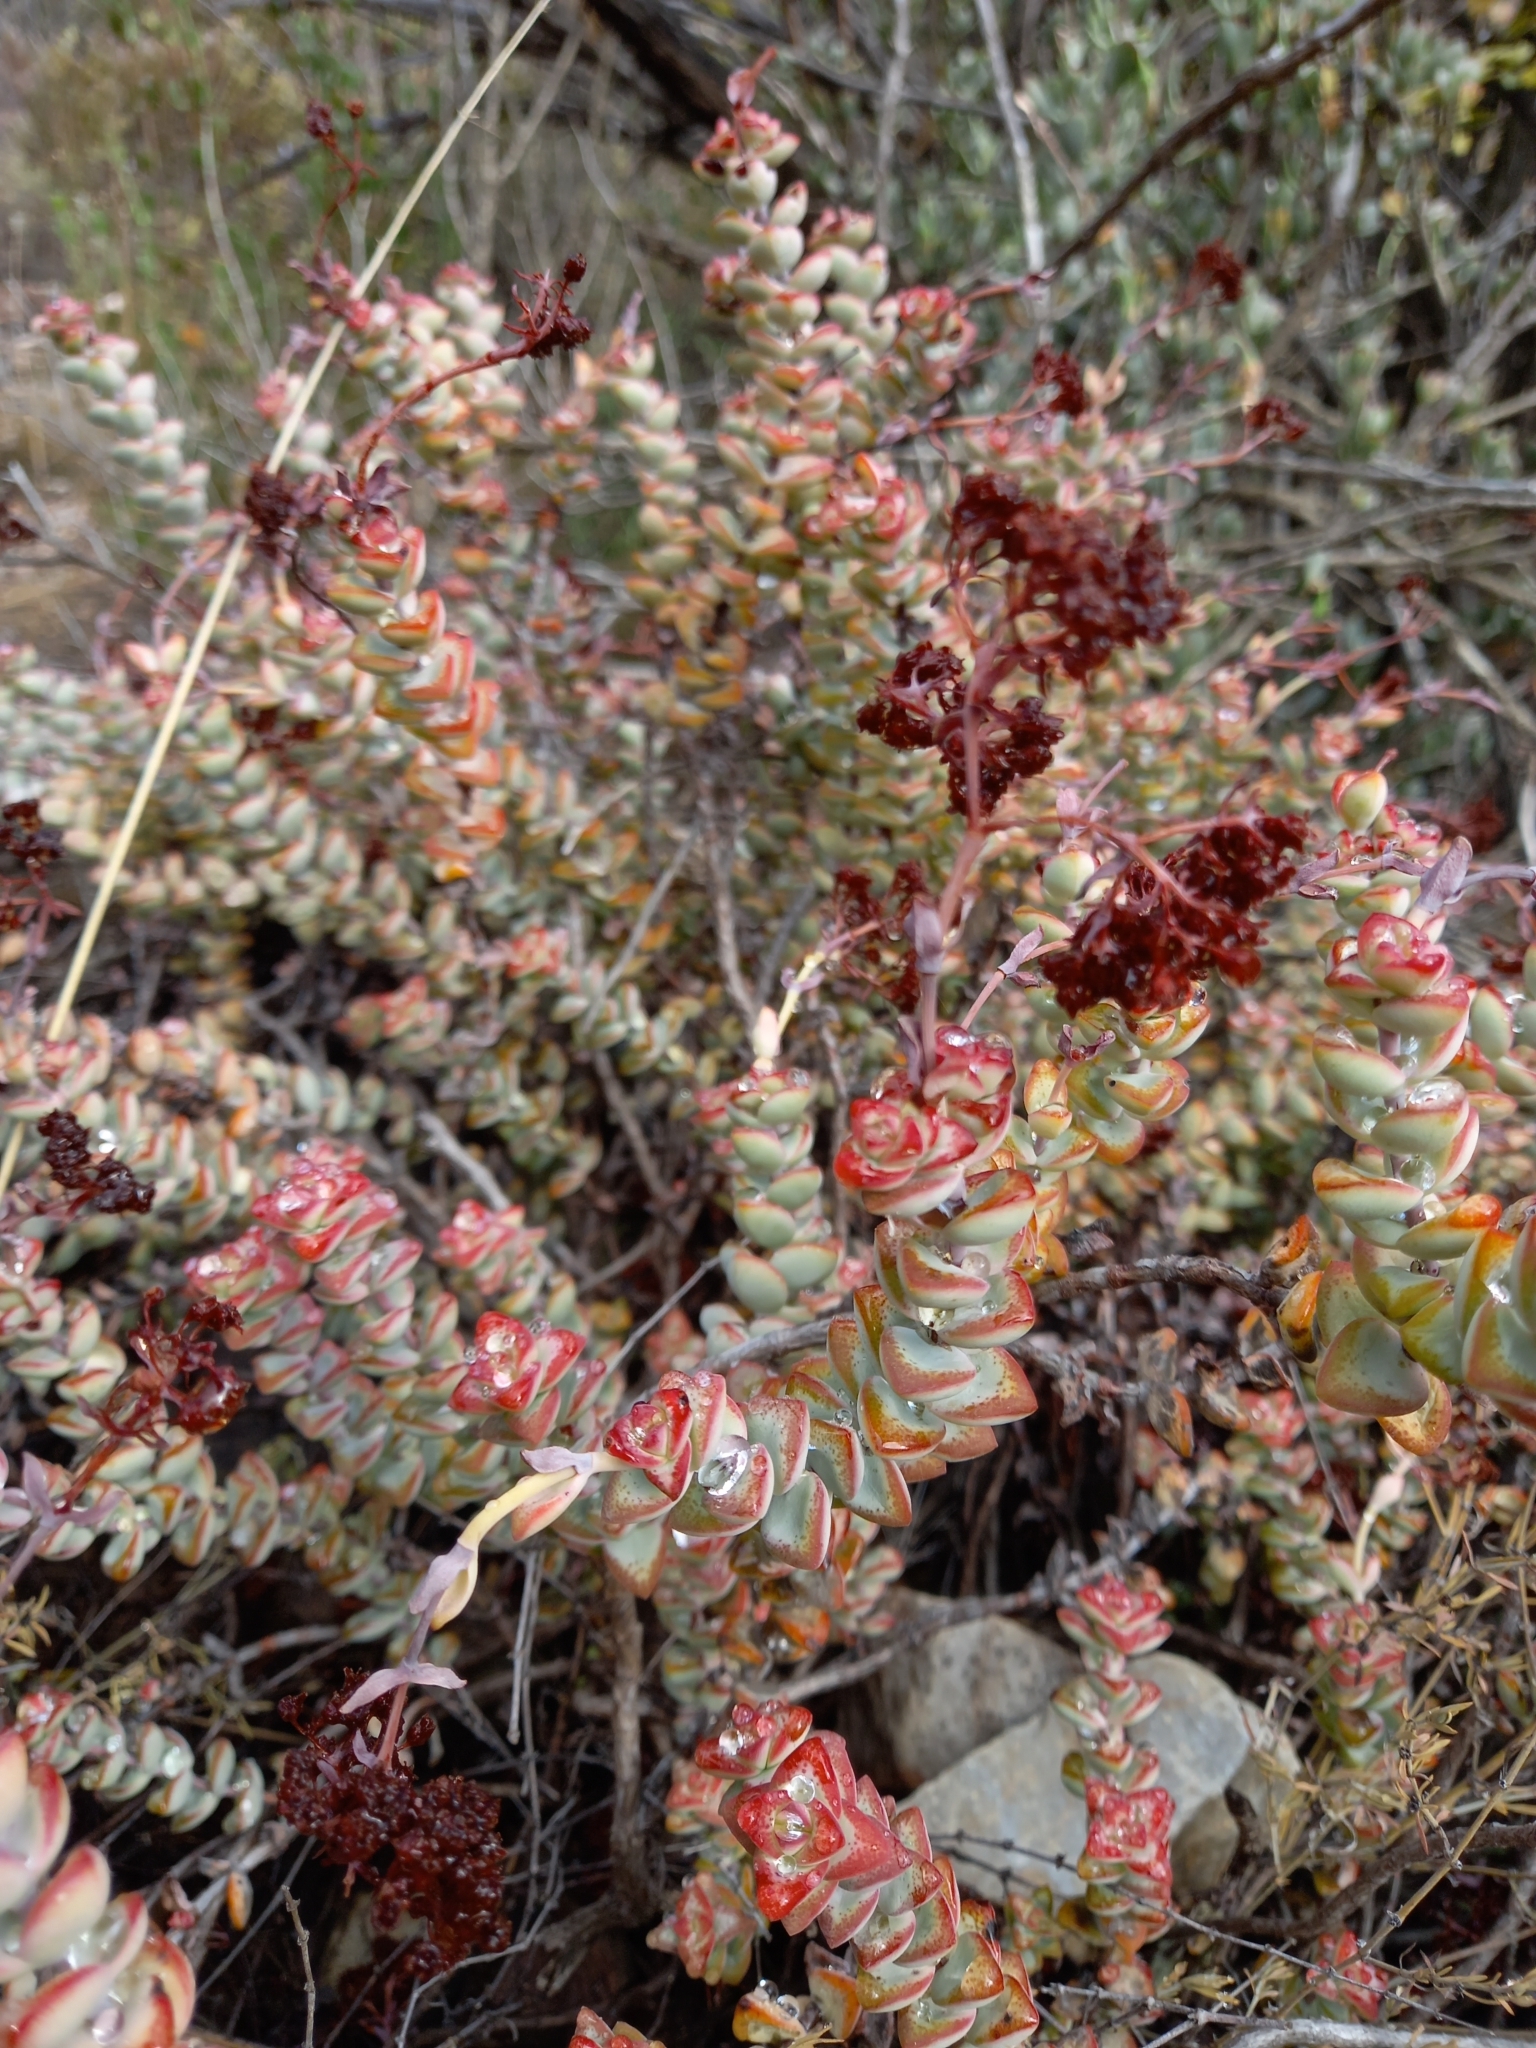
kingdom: Plantae
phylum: Tracheophyta
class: Magnoliopsida
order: Saxifragales
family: Crassulaceae
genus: Crassula
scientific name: Crassula rupestris
